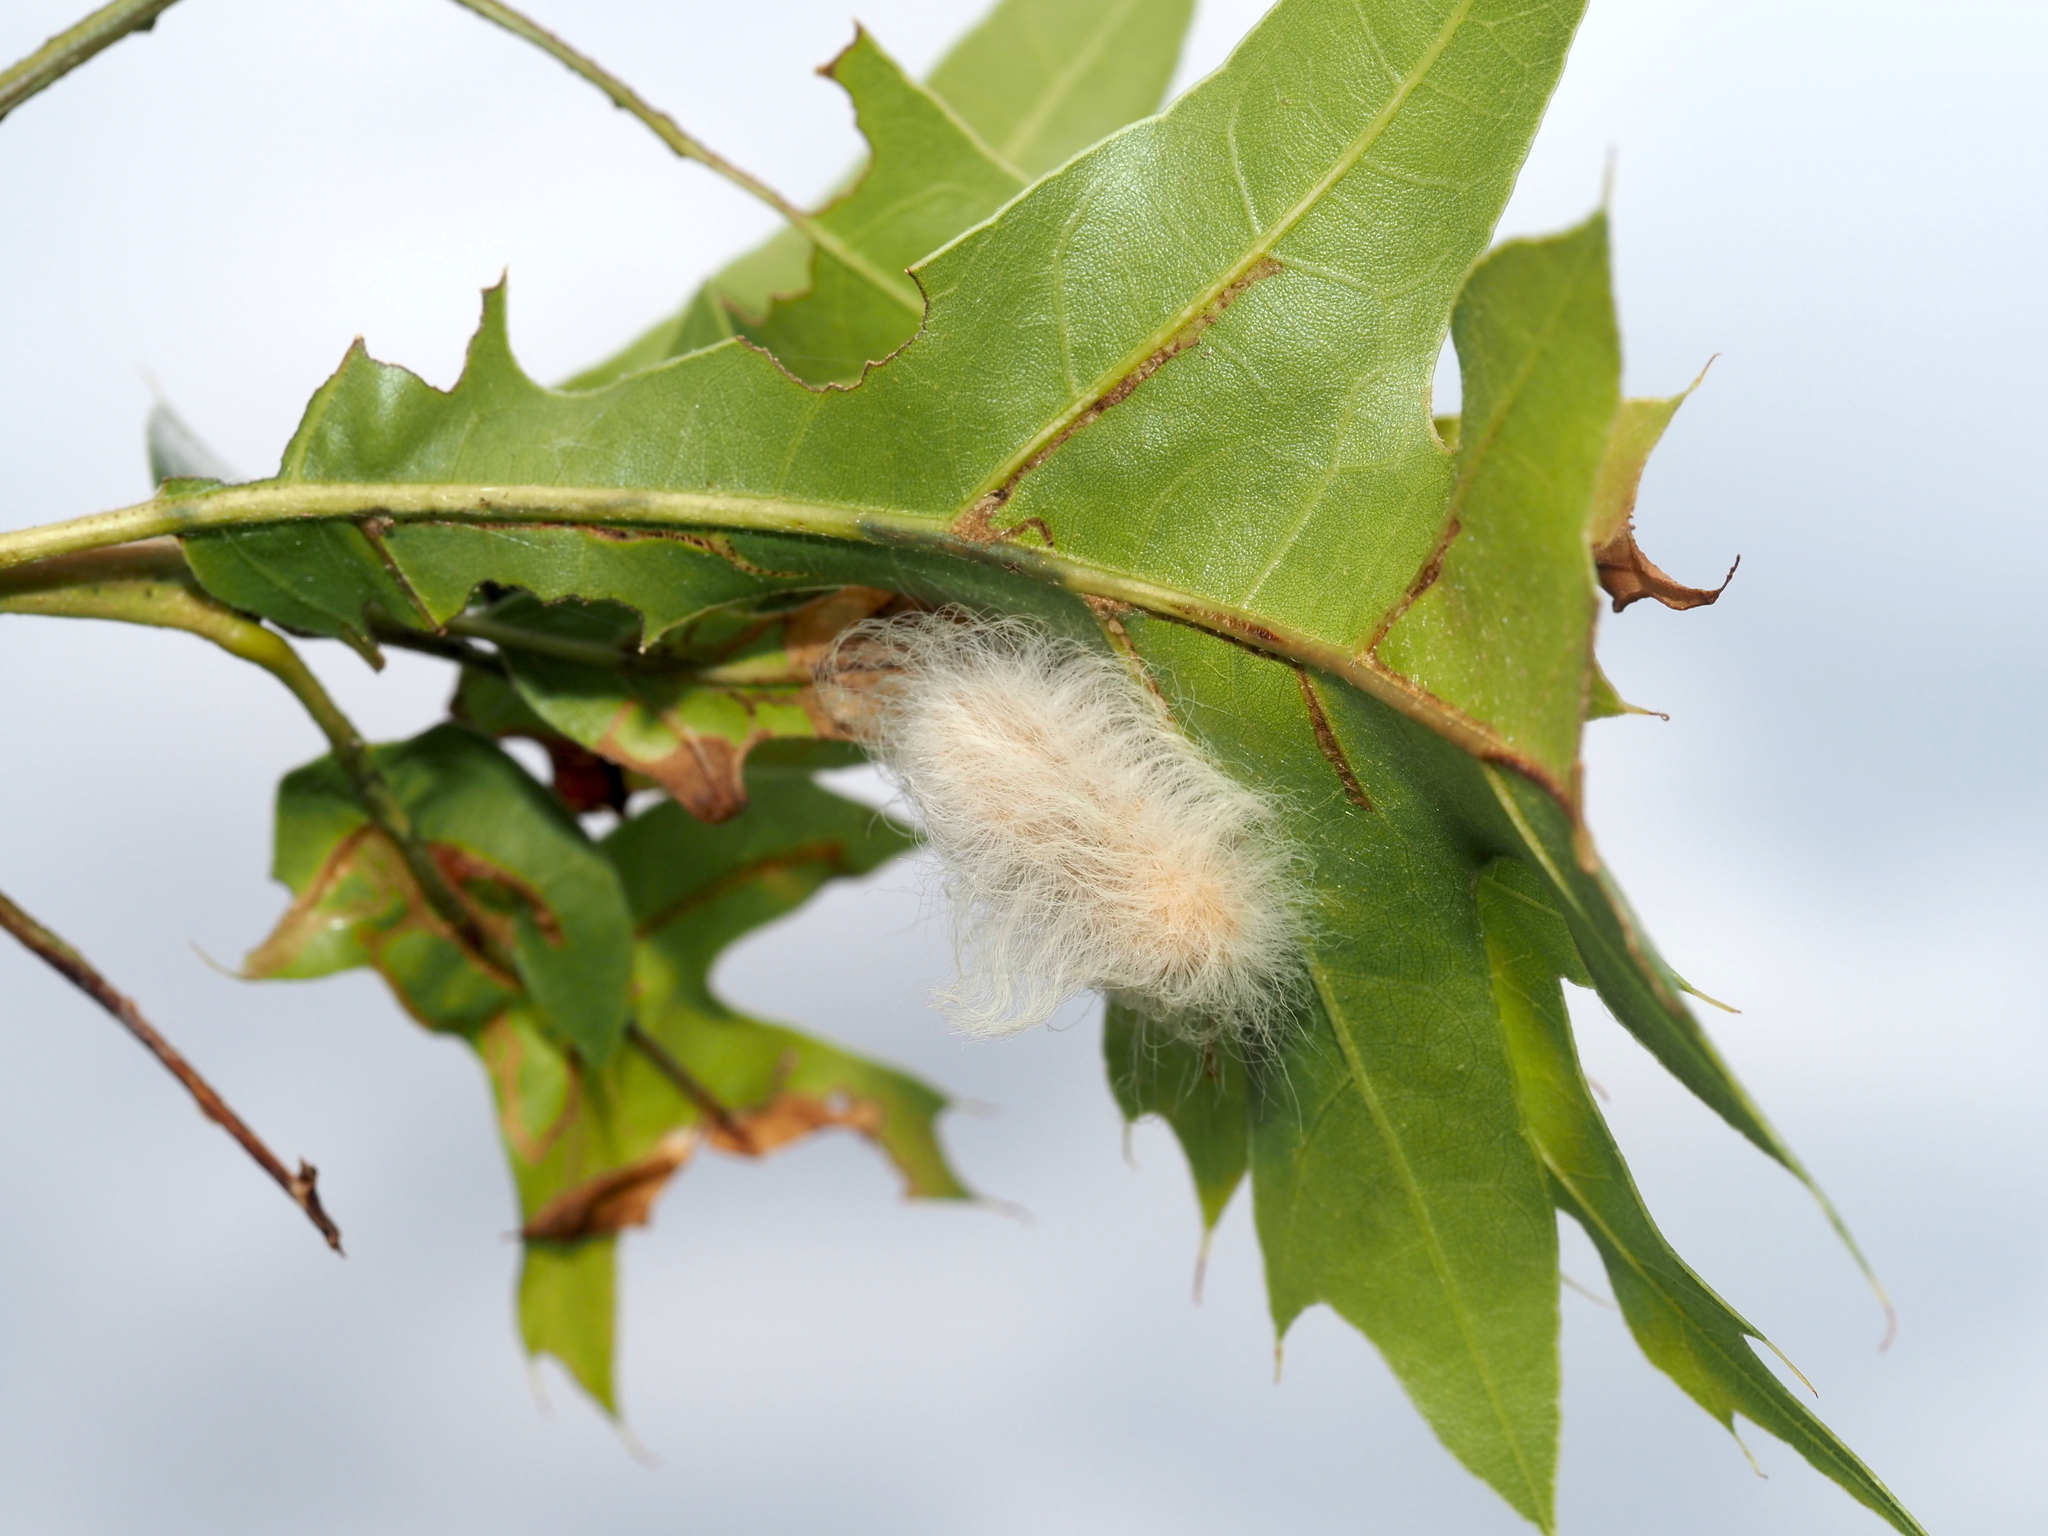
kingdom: Animalia
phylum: Arthropoda
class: Insecta
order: Lepidoptera
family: Megalopygidae
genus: Megalopyge
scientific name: Megalopyge crispata
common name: Black-waved flannel moth
